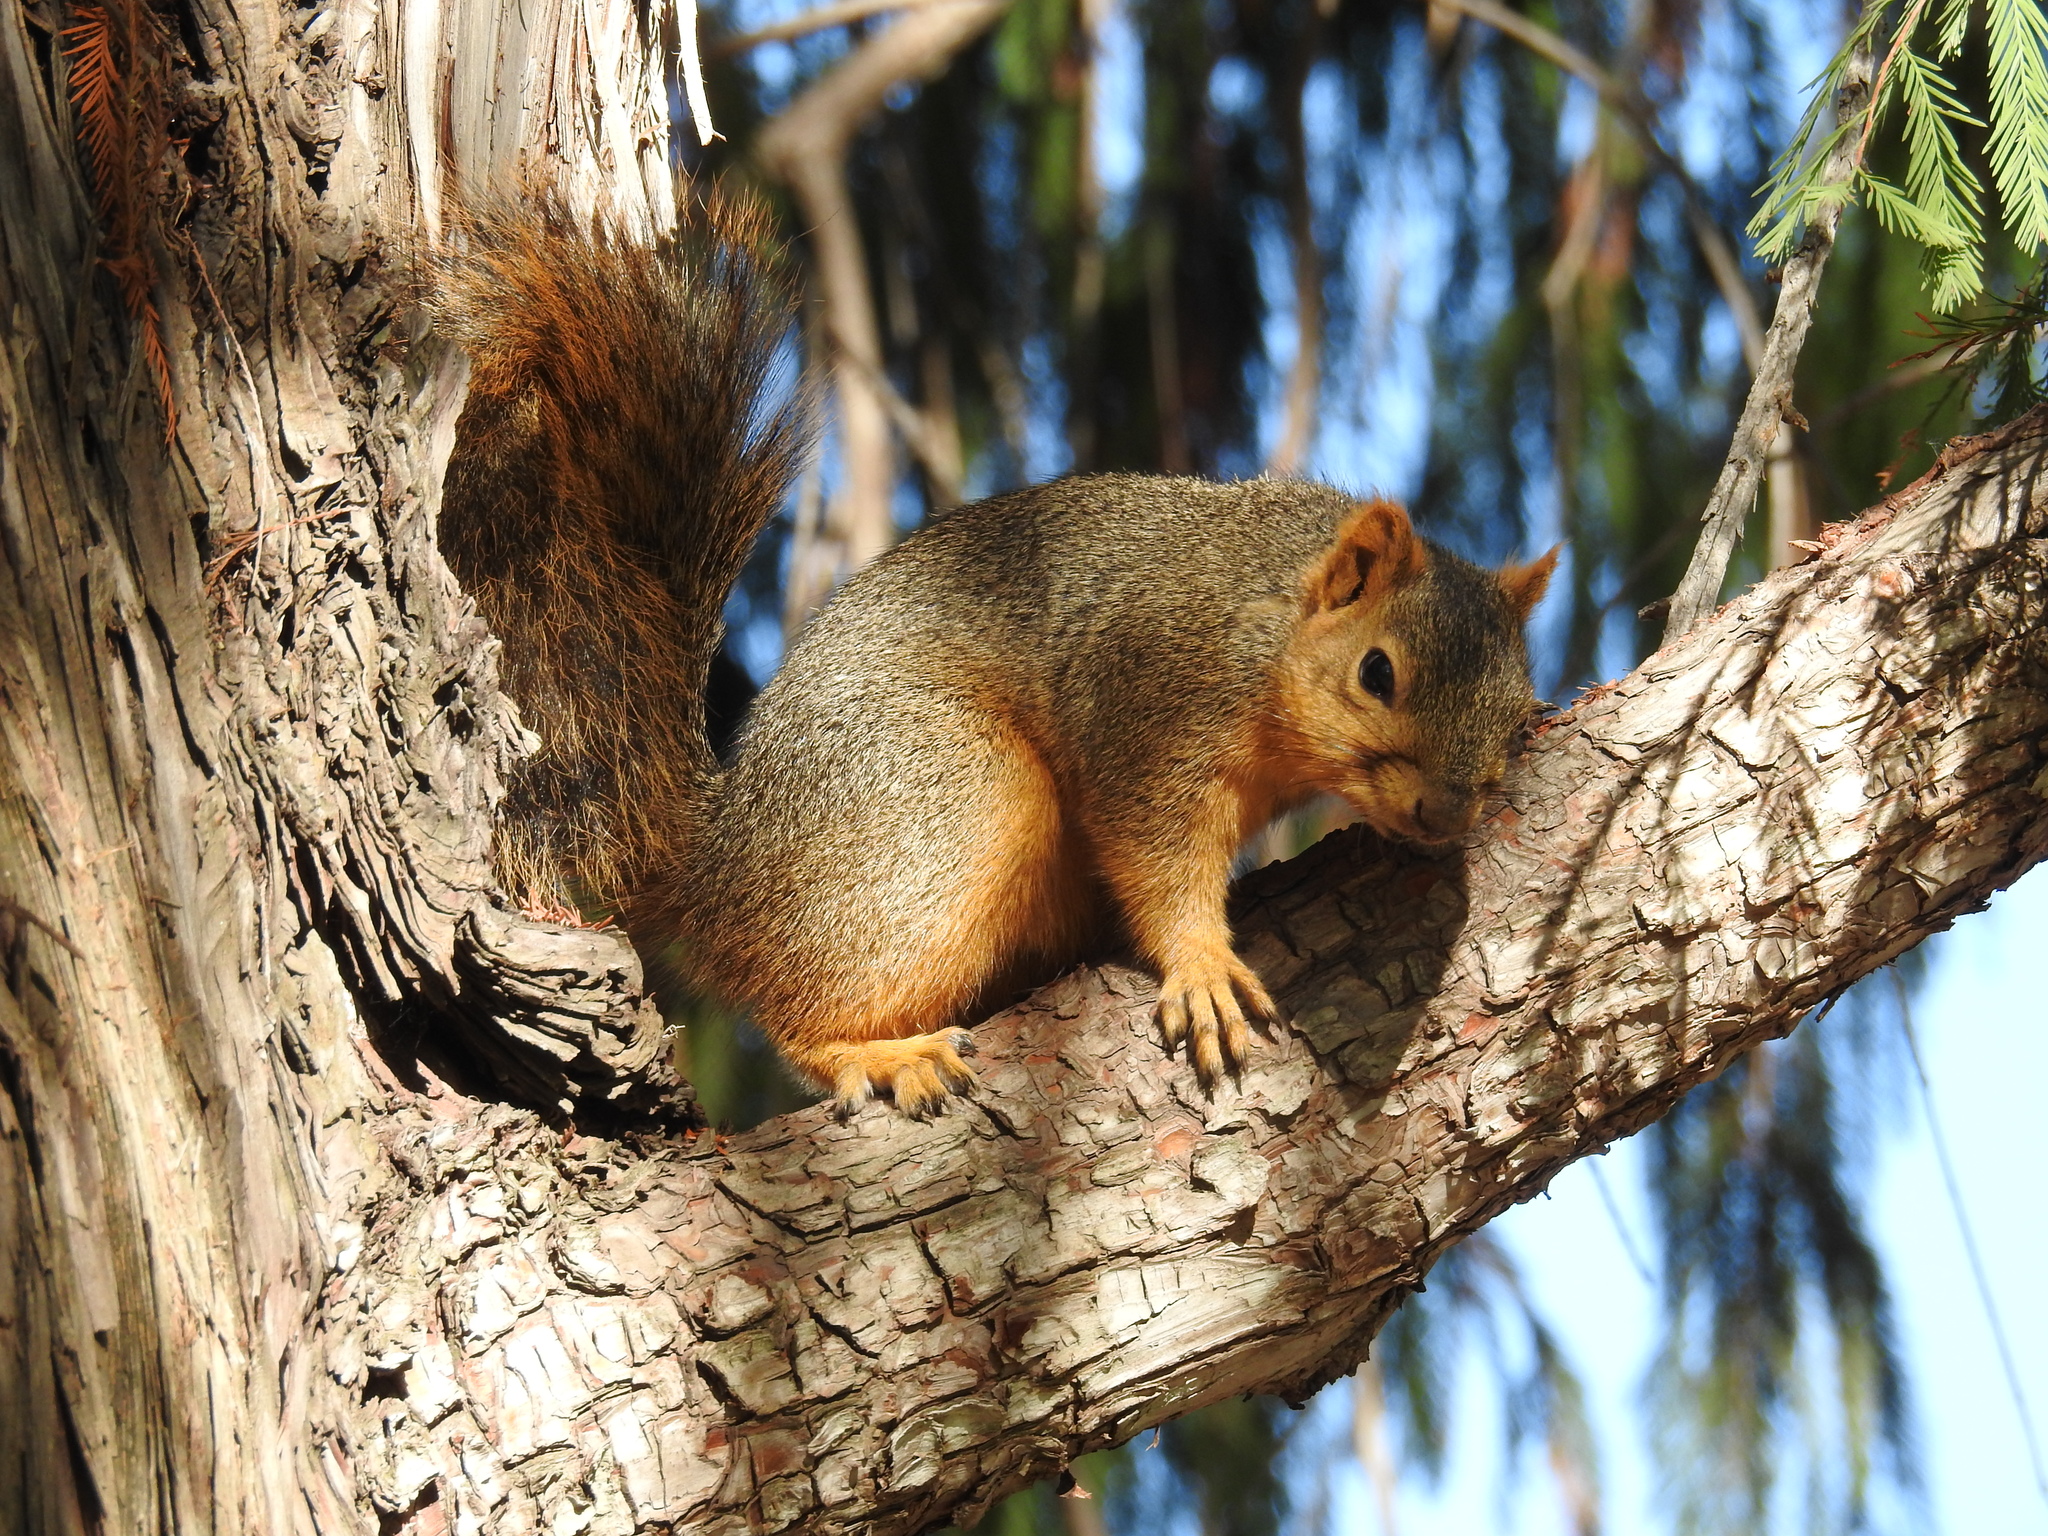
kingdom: Animalia
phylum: Chordata
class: Mammalia
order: Rodentia
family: Sciuridae
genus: Sciurus
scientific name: Sciurus niger
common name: Fox squirrel
